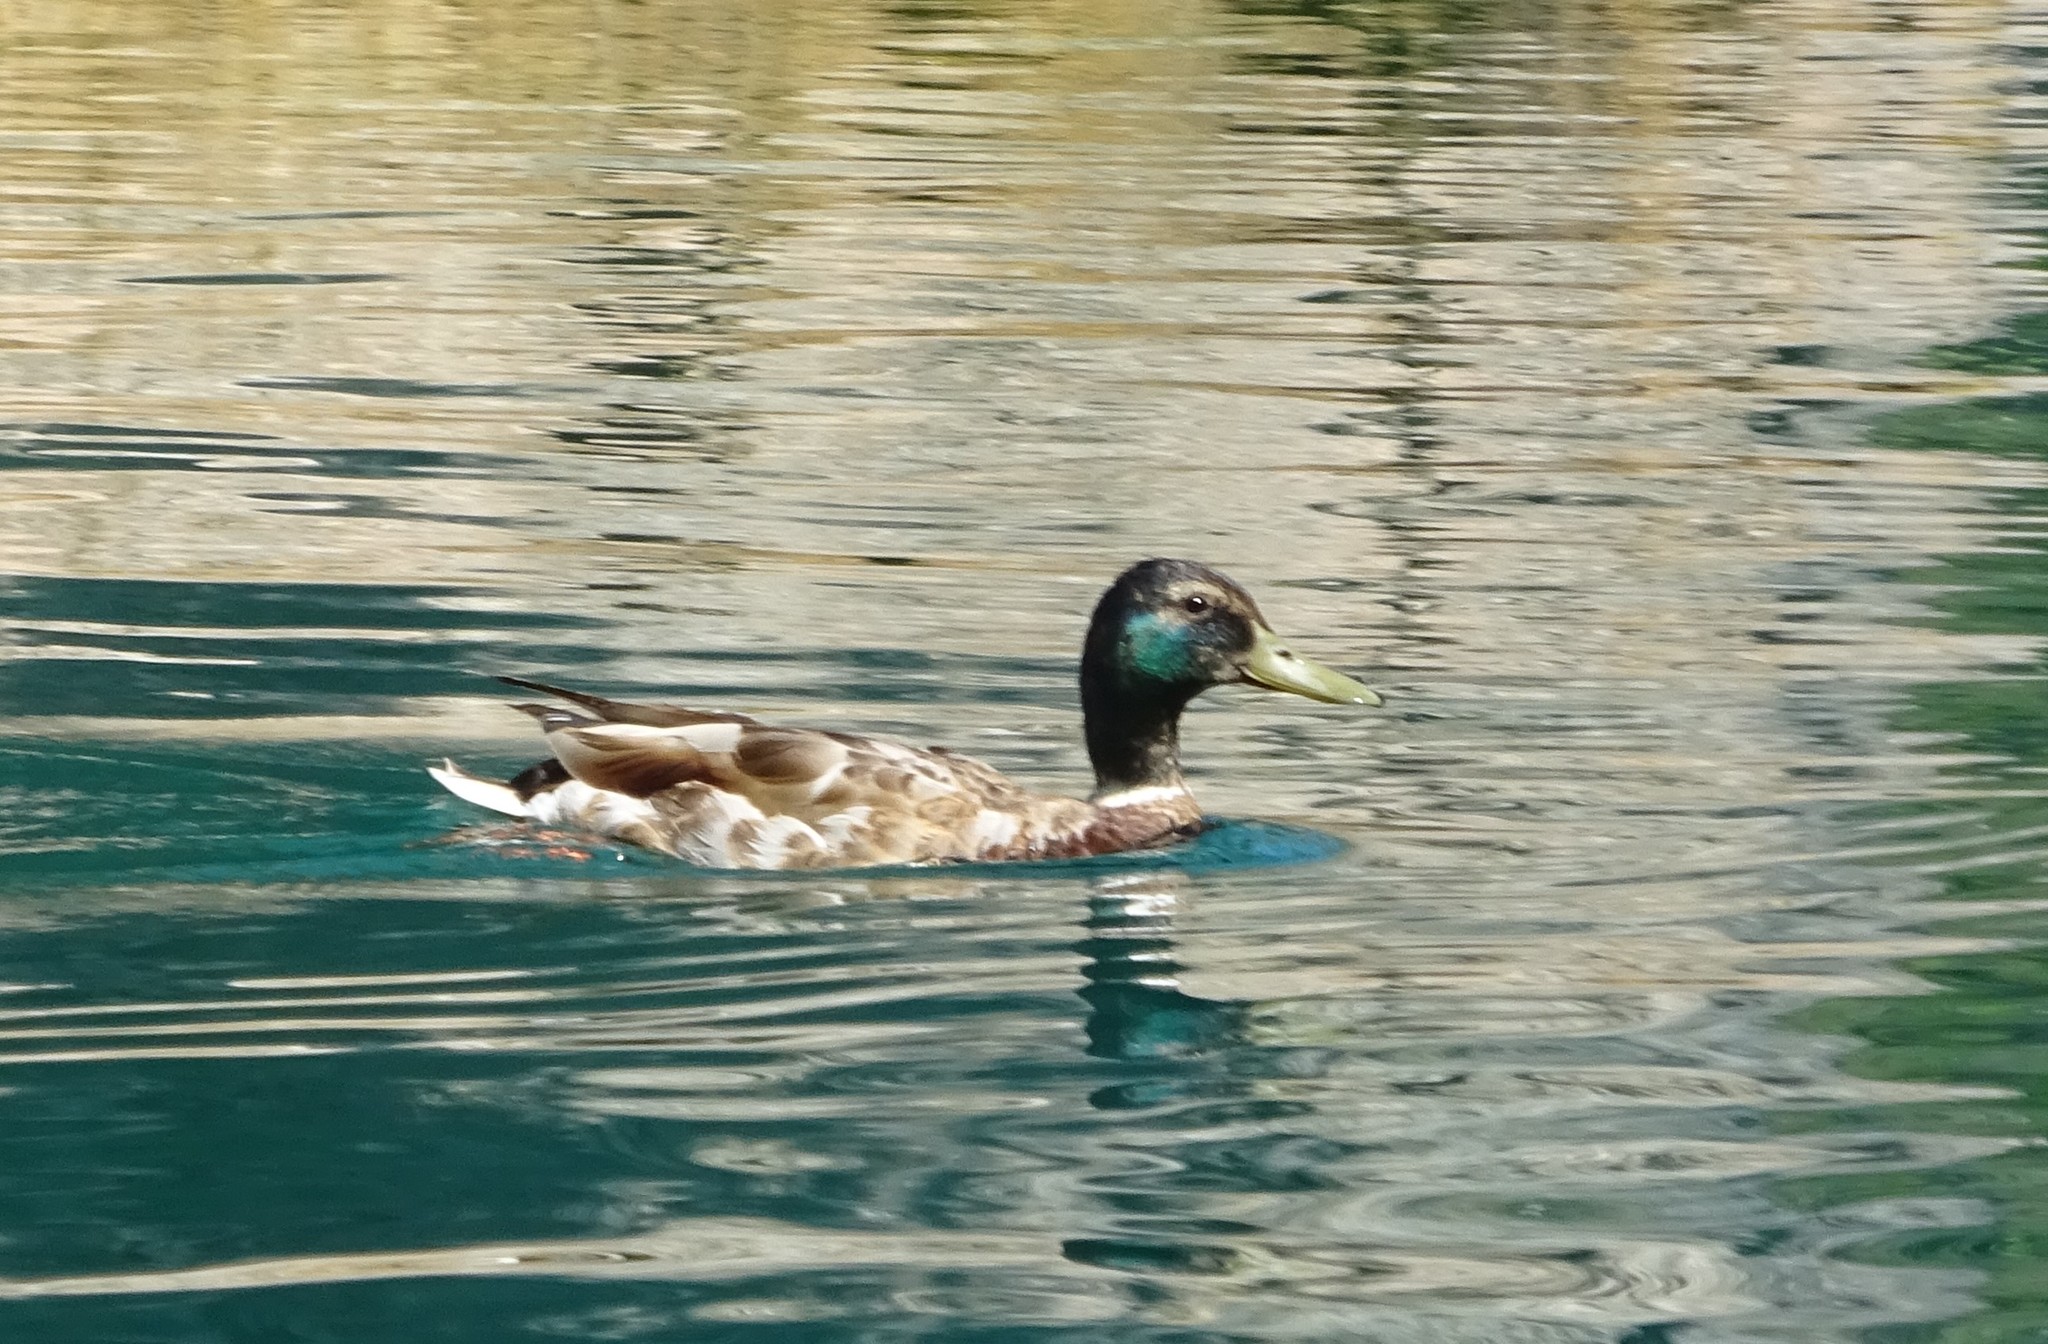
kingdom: Animalia
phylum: Chordata
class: Aves
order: Anseriformes
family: Anatidae
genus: Anas
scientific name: Anas platyrhynchos
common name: Mallard
